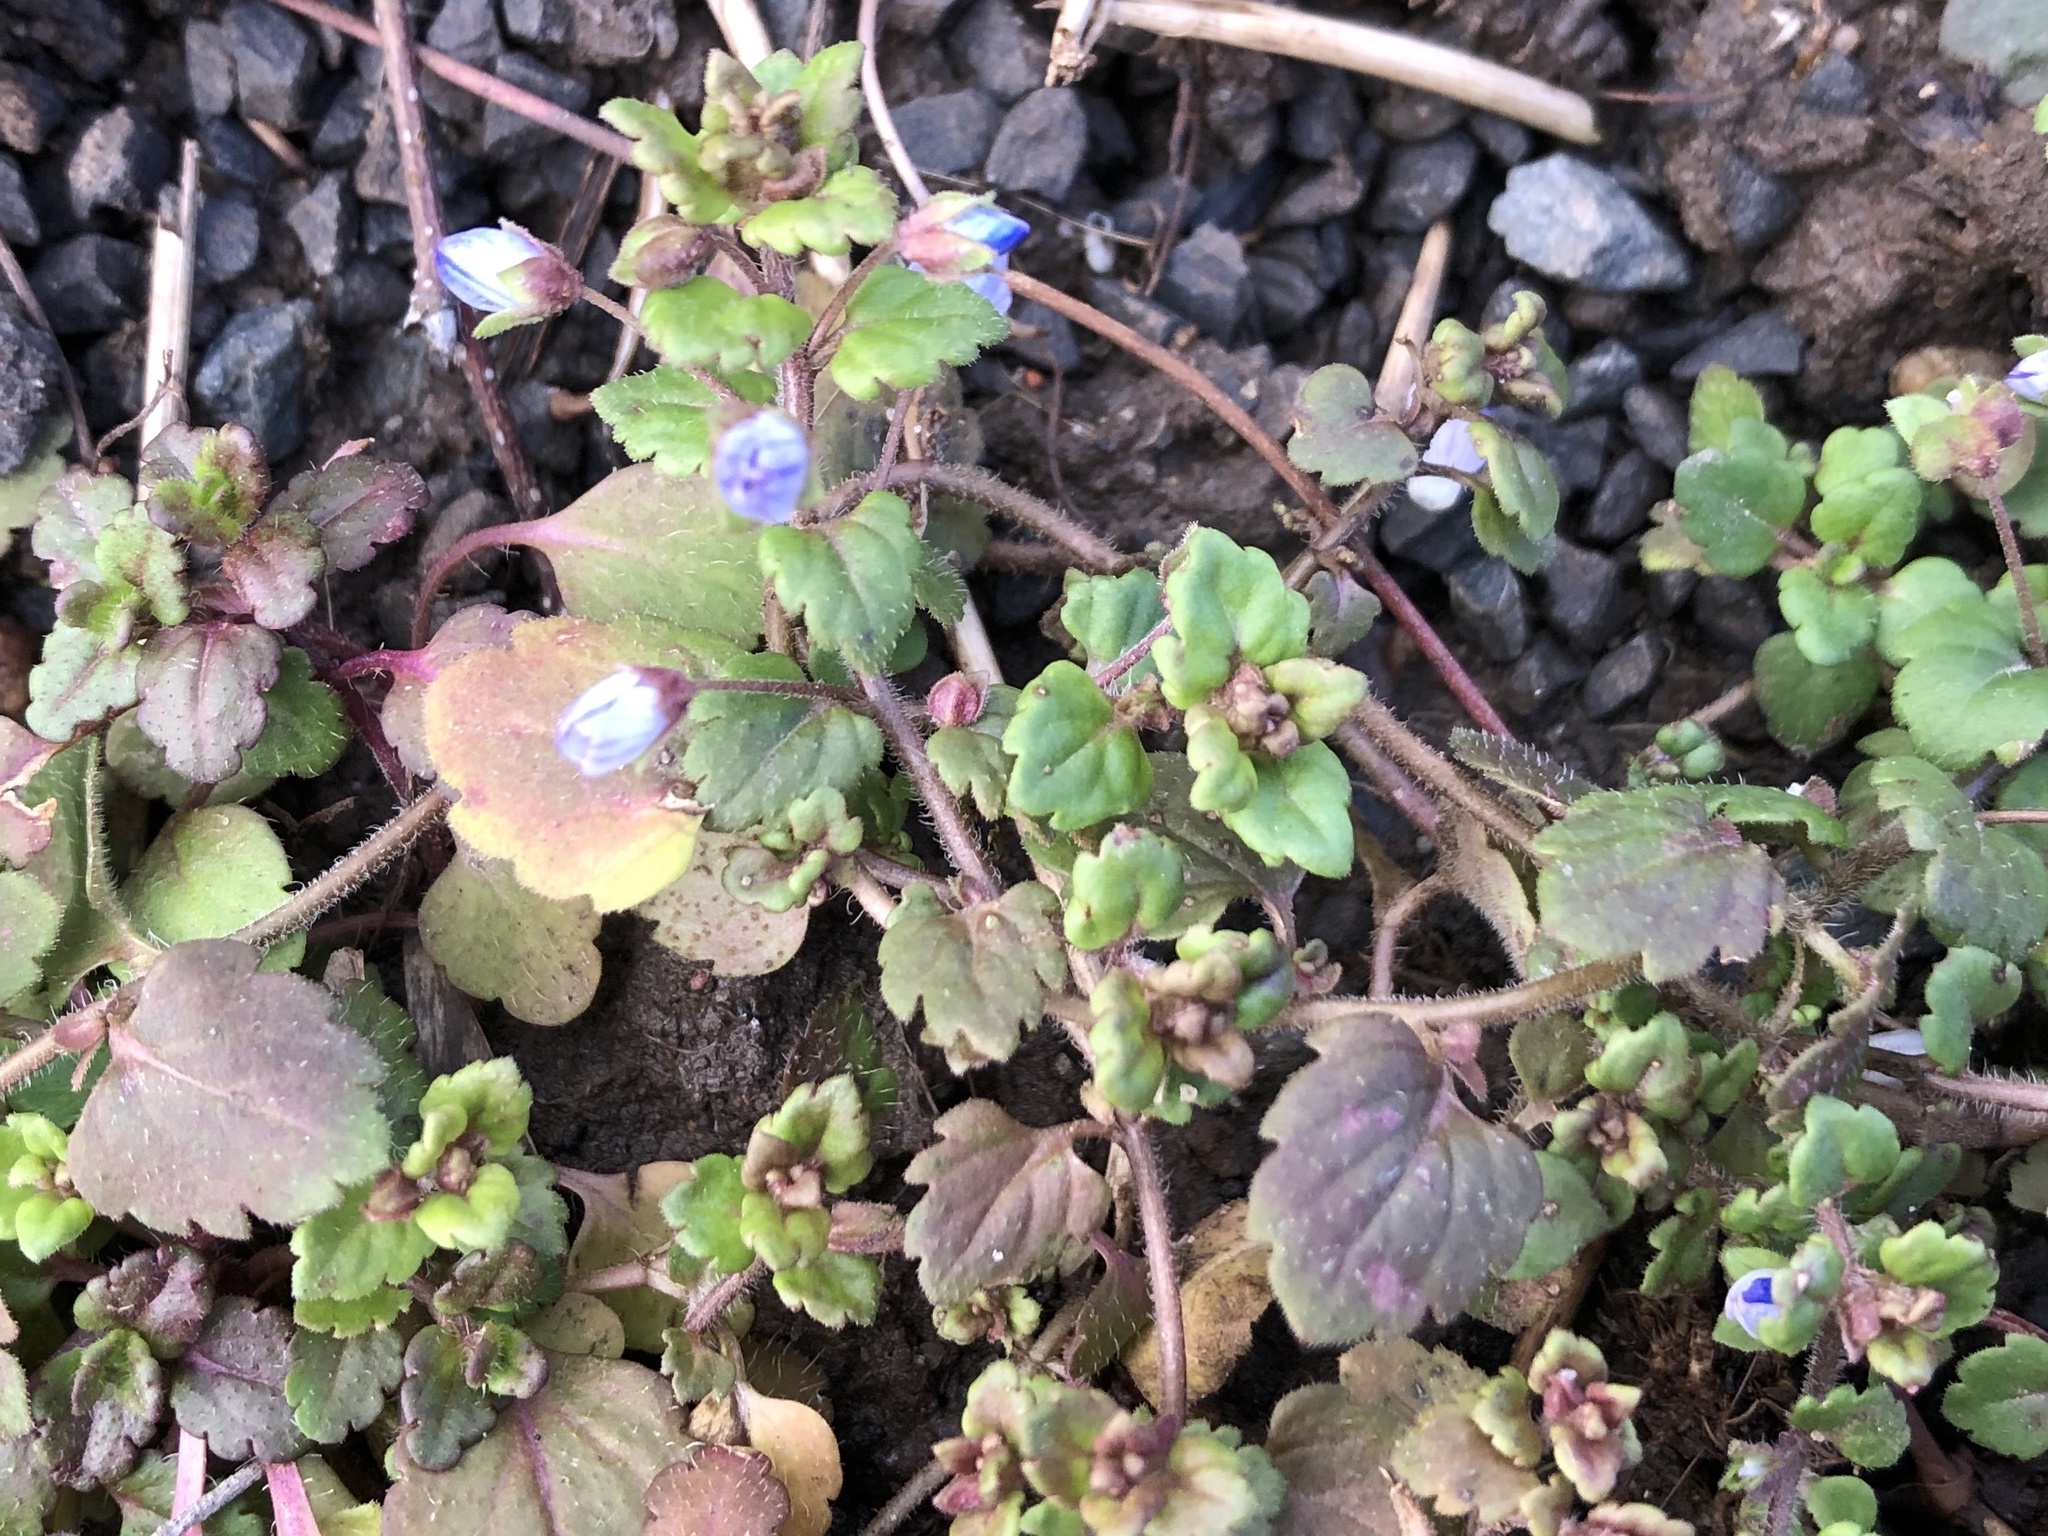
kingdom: Plantae
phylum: Tracheophyta
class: Magnoliopsida
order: Lamiales
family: Plantaginaceae
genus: Veronica
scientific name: Veronica polita
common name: Grey field-speedwell
